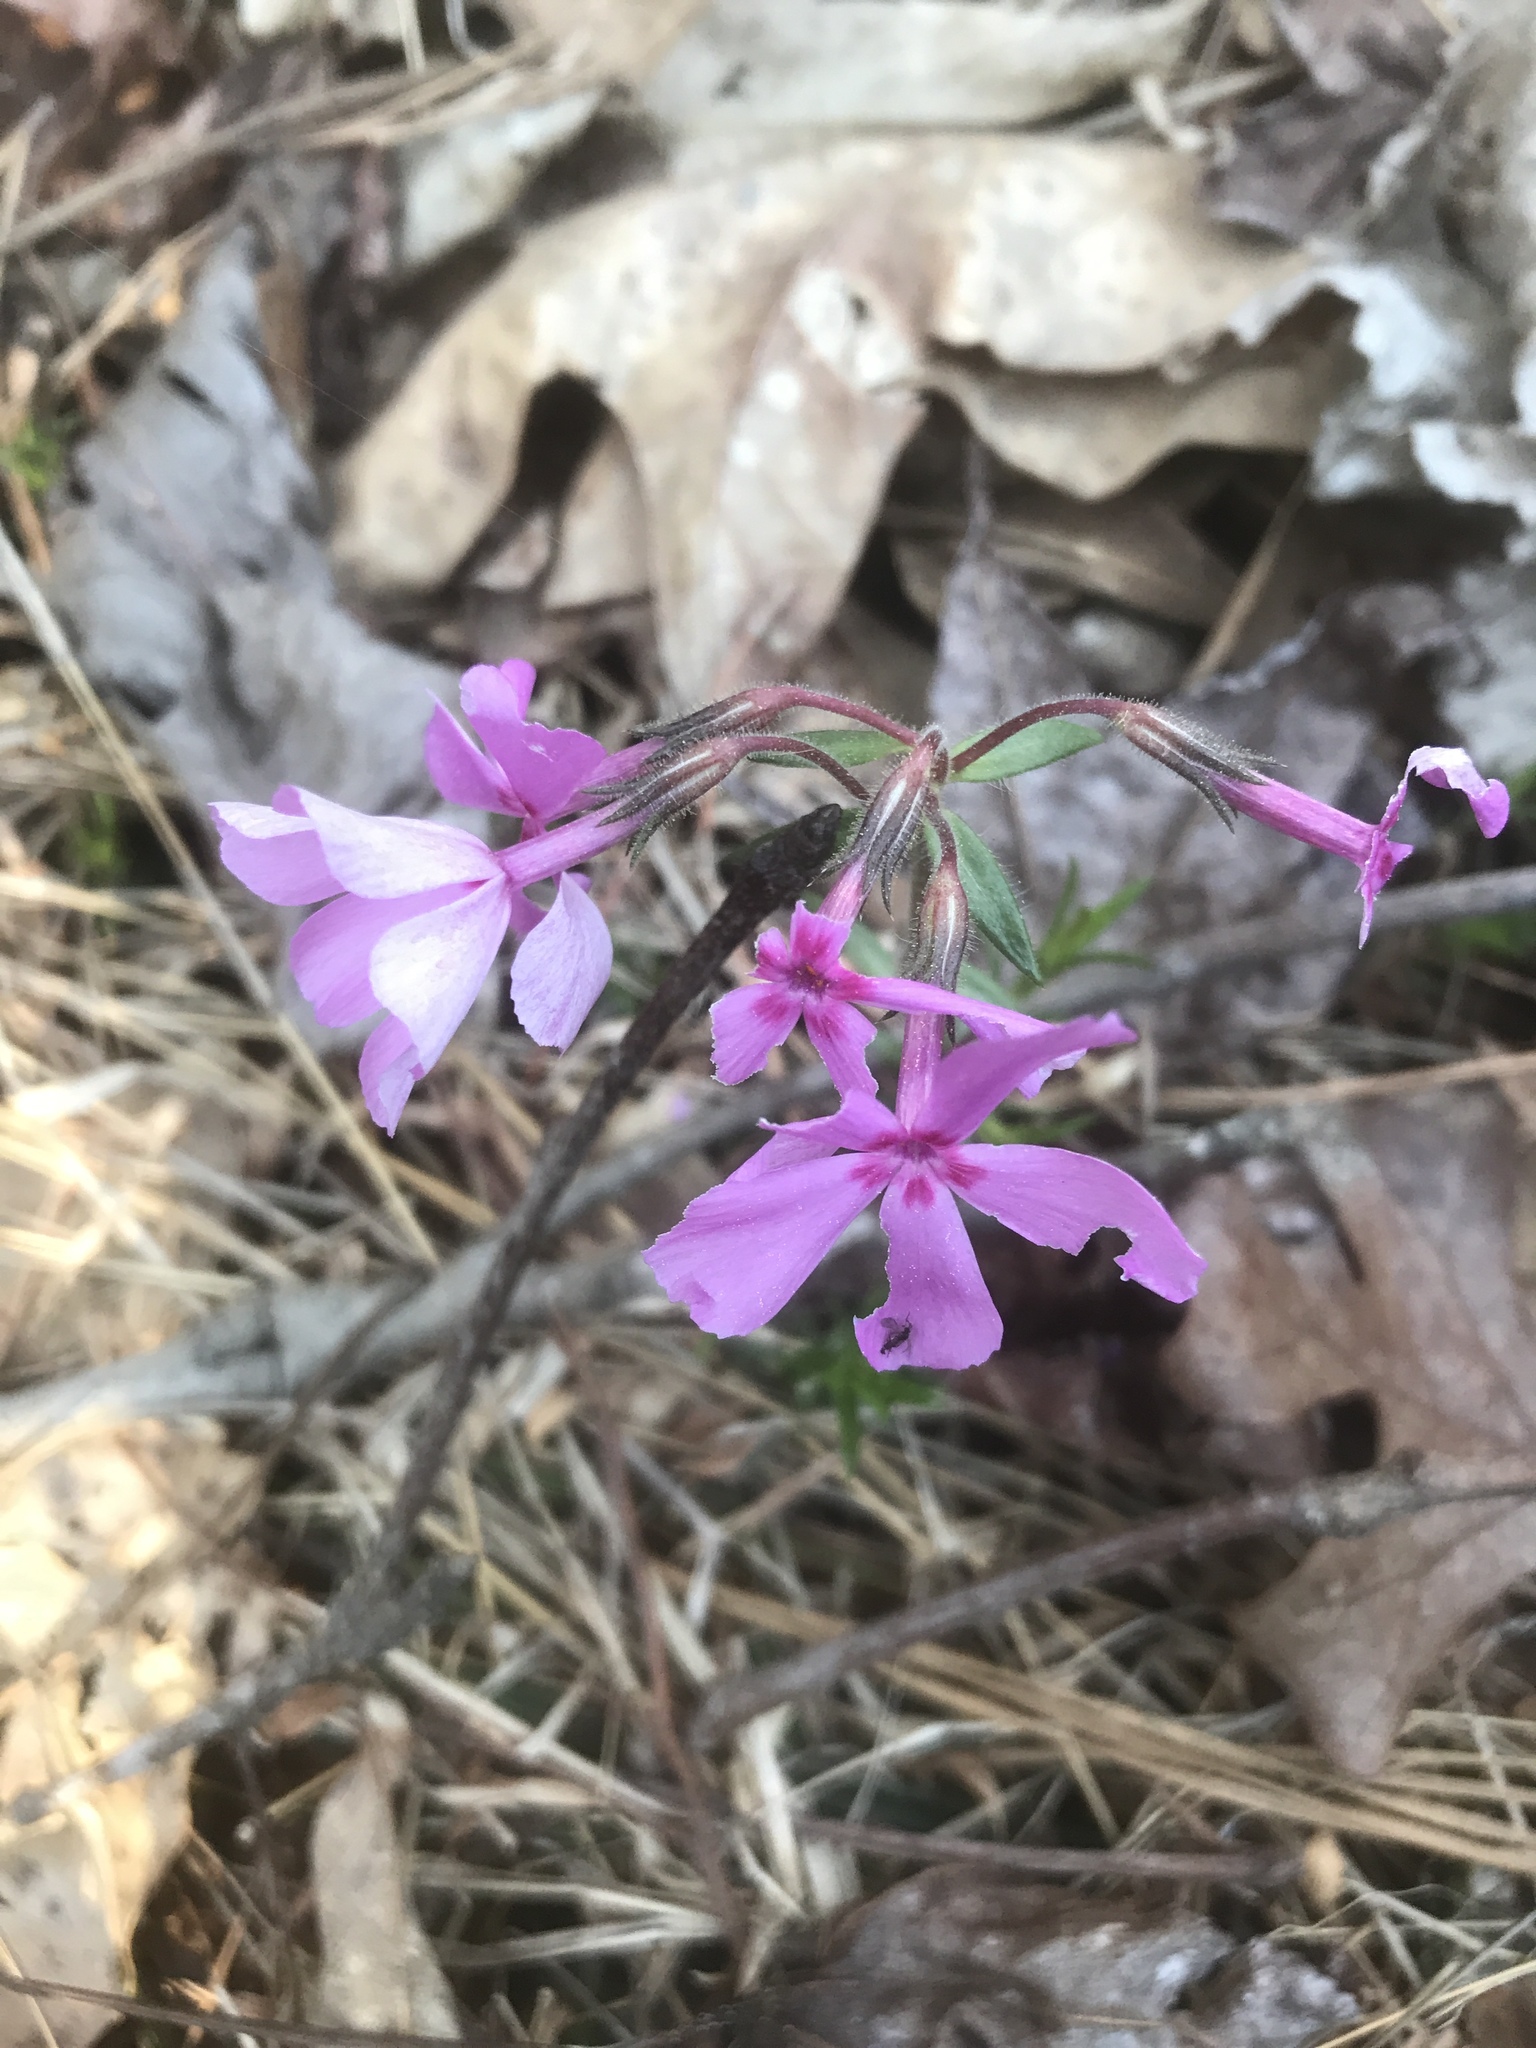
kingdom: Plantae
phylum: Tracheophyta
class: Magnoliopsida
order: Ericales
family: Polemoniaceae
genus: Phlox
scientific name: Phlox nivalis
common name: Trailing phlox
